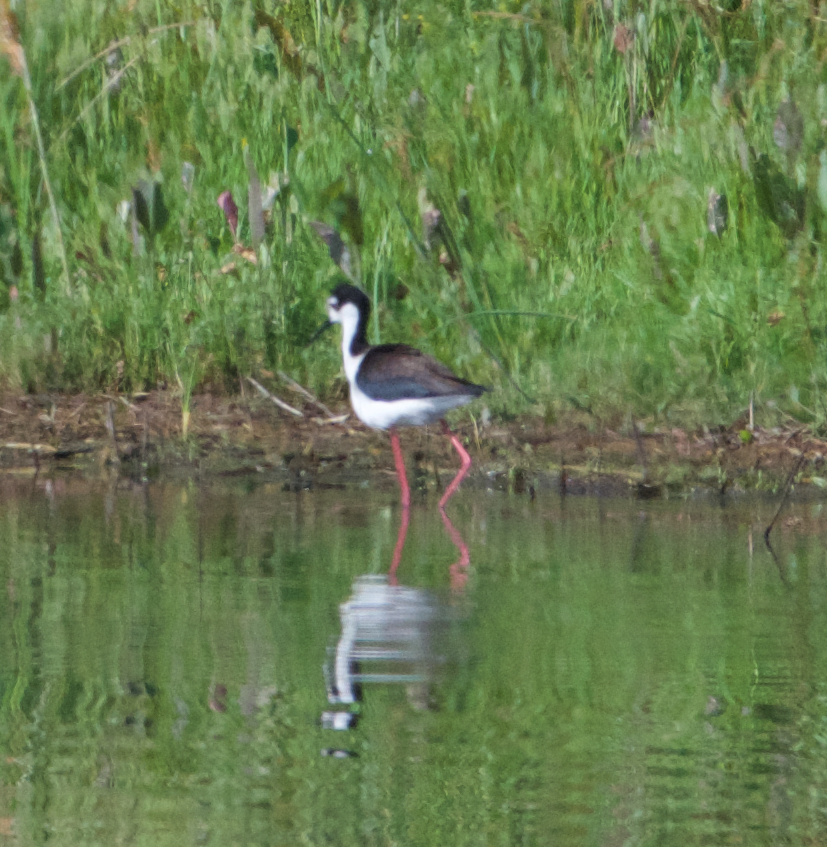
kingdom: Animalia
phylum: Chordata
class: Aves
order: Charadriiformes
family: Recurvirostridae
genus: Himantopus
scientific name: Himantopus mexicanus
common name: Black-necked stilt
